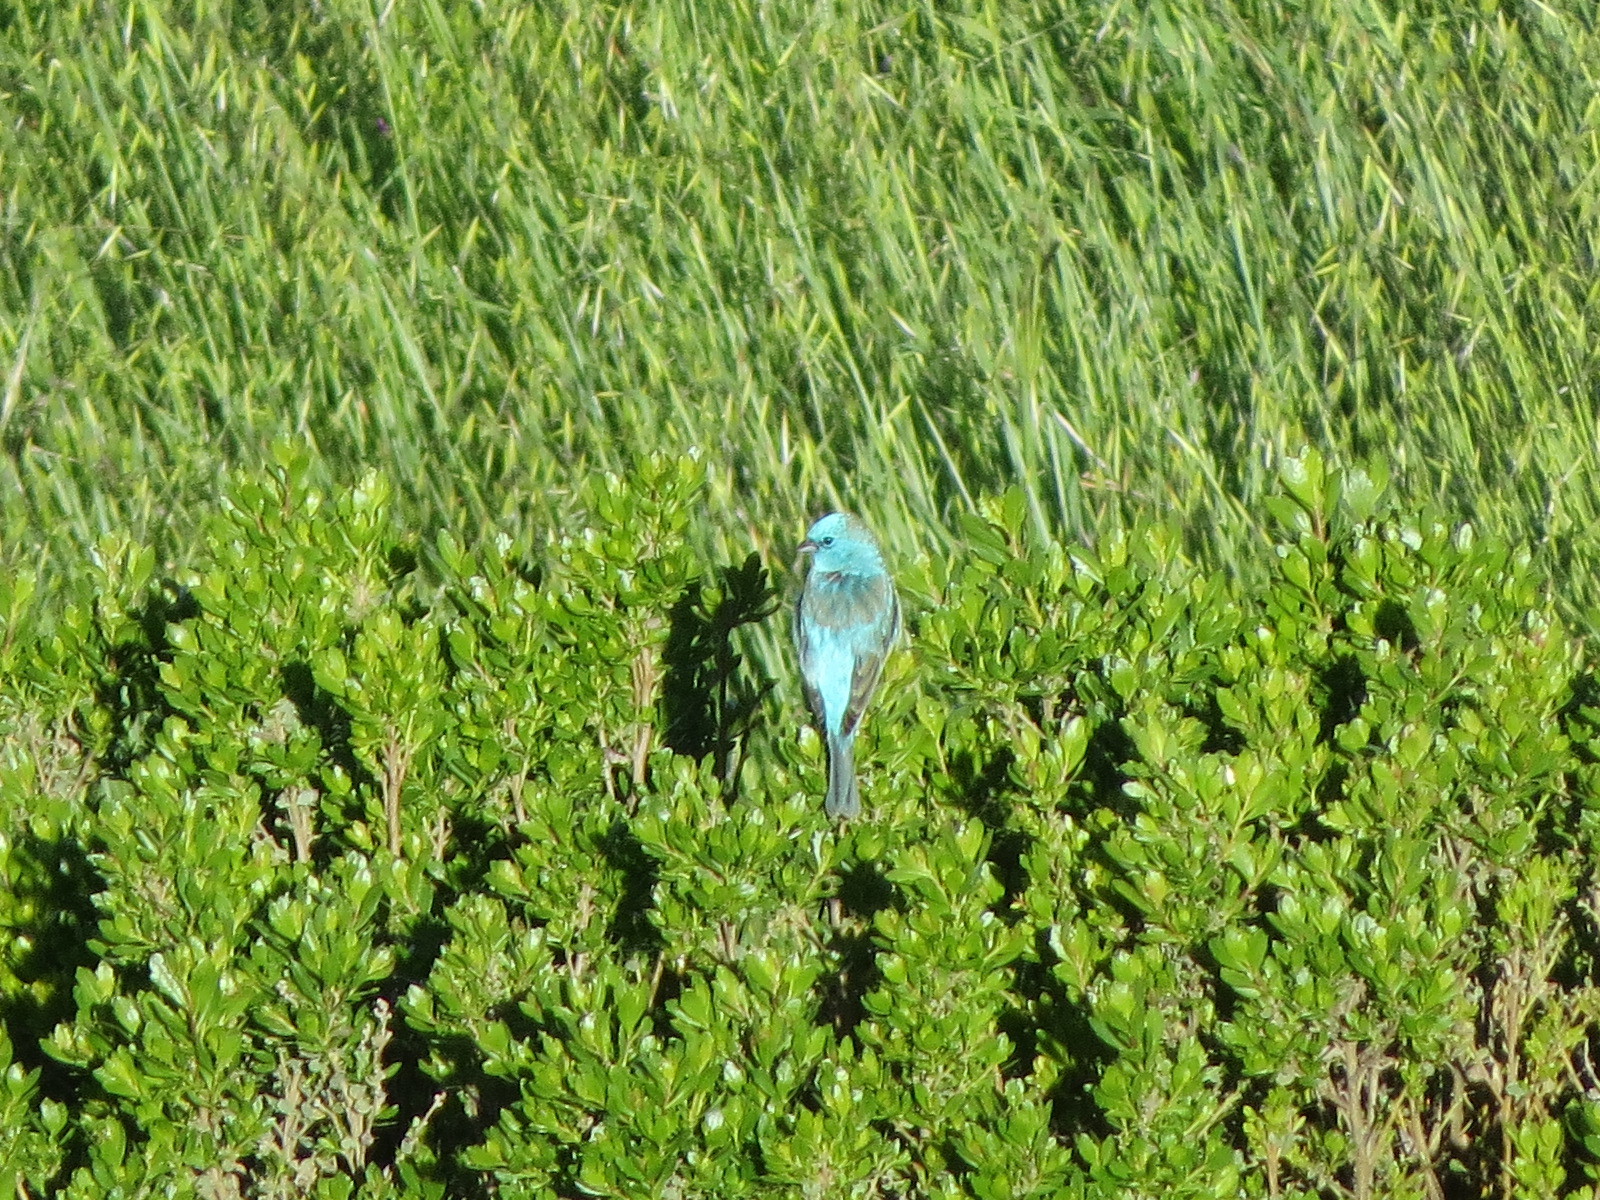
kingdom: Animalia
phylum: Chordata
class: Aves
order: Passeriformes
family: Cardinalidae
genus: Passerina
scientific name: Passerina amoena
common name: Lazuli bunting
